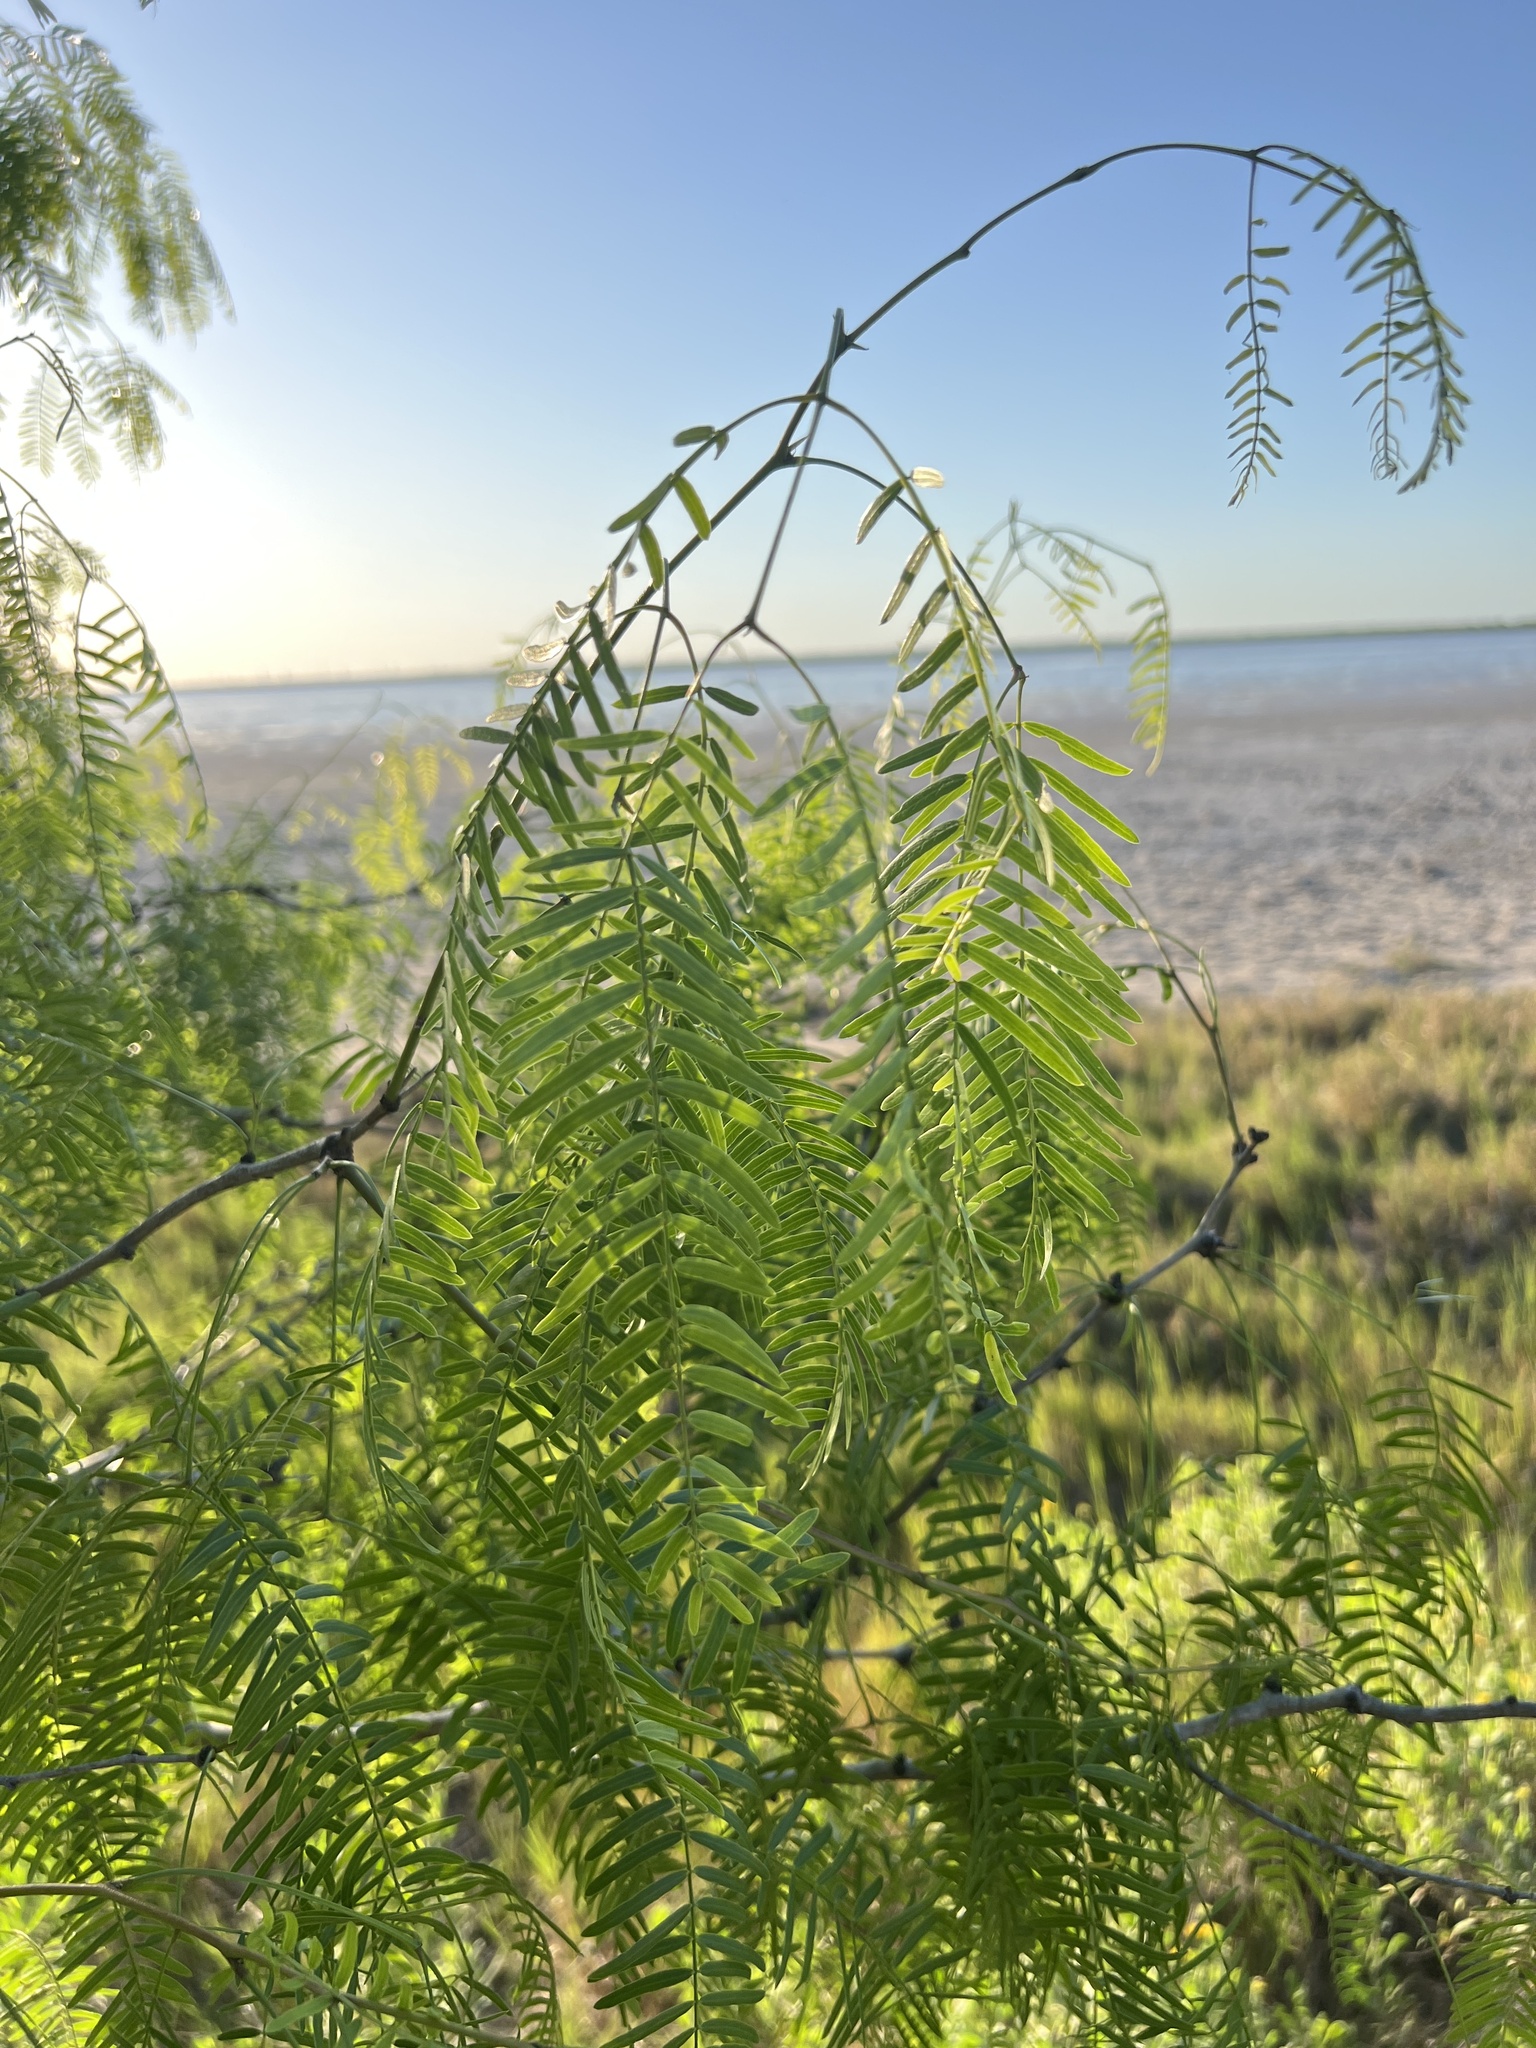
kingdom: Plantae
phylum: Tracheophyta
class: Magnoliopsida
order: Fabales
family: Fabaceae
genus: Prosopis
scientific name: Prosopis glandulosa
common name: Honey mesquite
